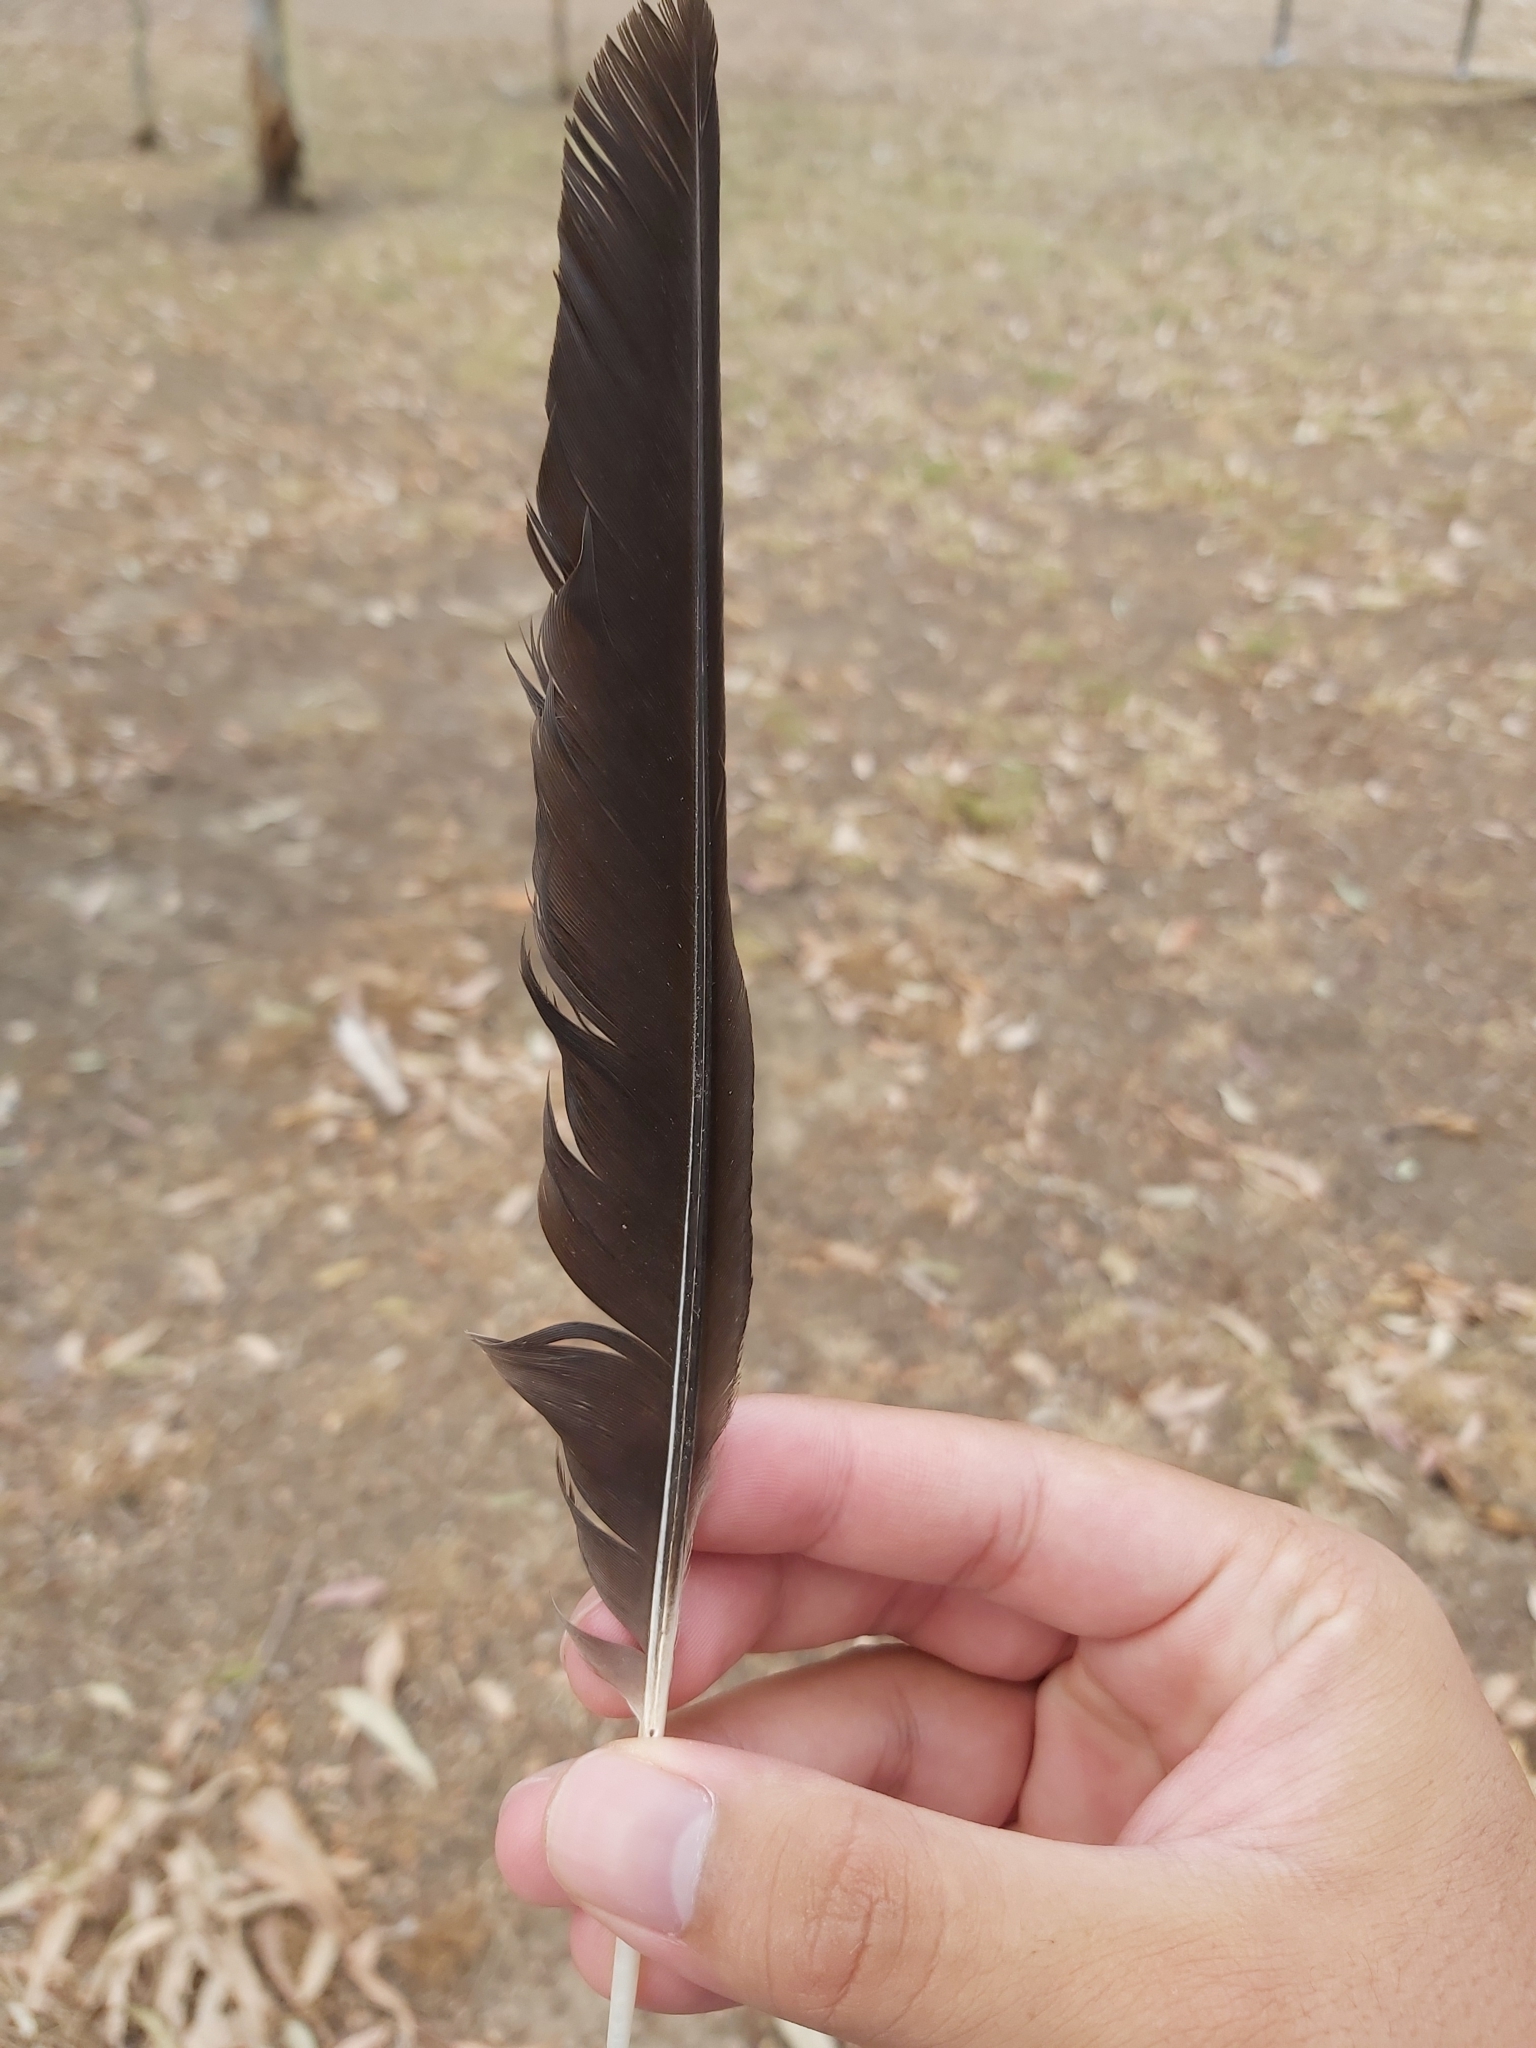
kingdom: Animalia
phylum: Chordata
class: Aves
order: Passeriformes
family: Cracticidae
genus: Gymnorhina
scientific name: Gymnorhina tibicen
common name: Australian magpie
